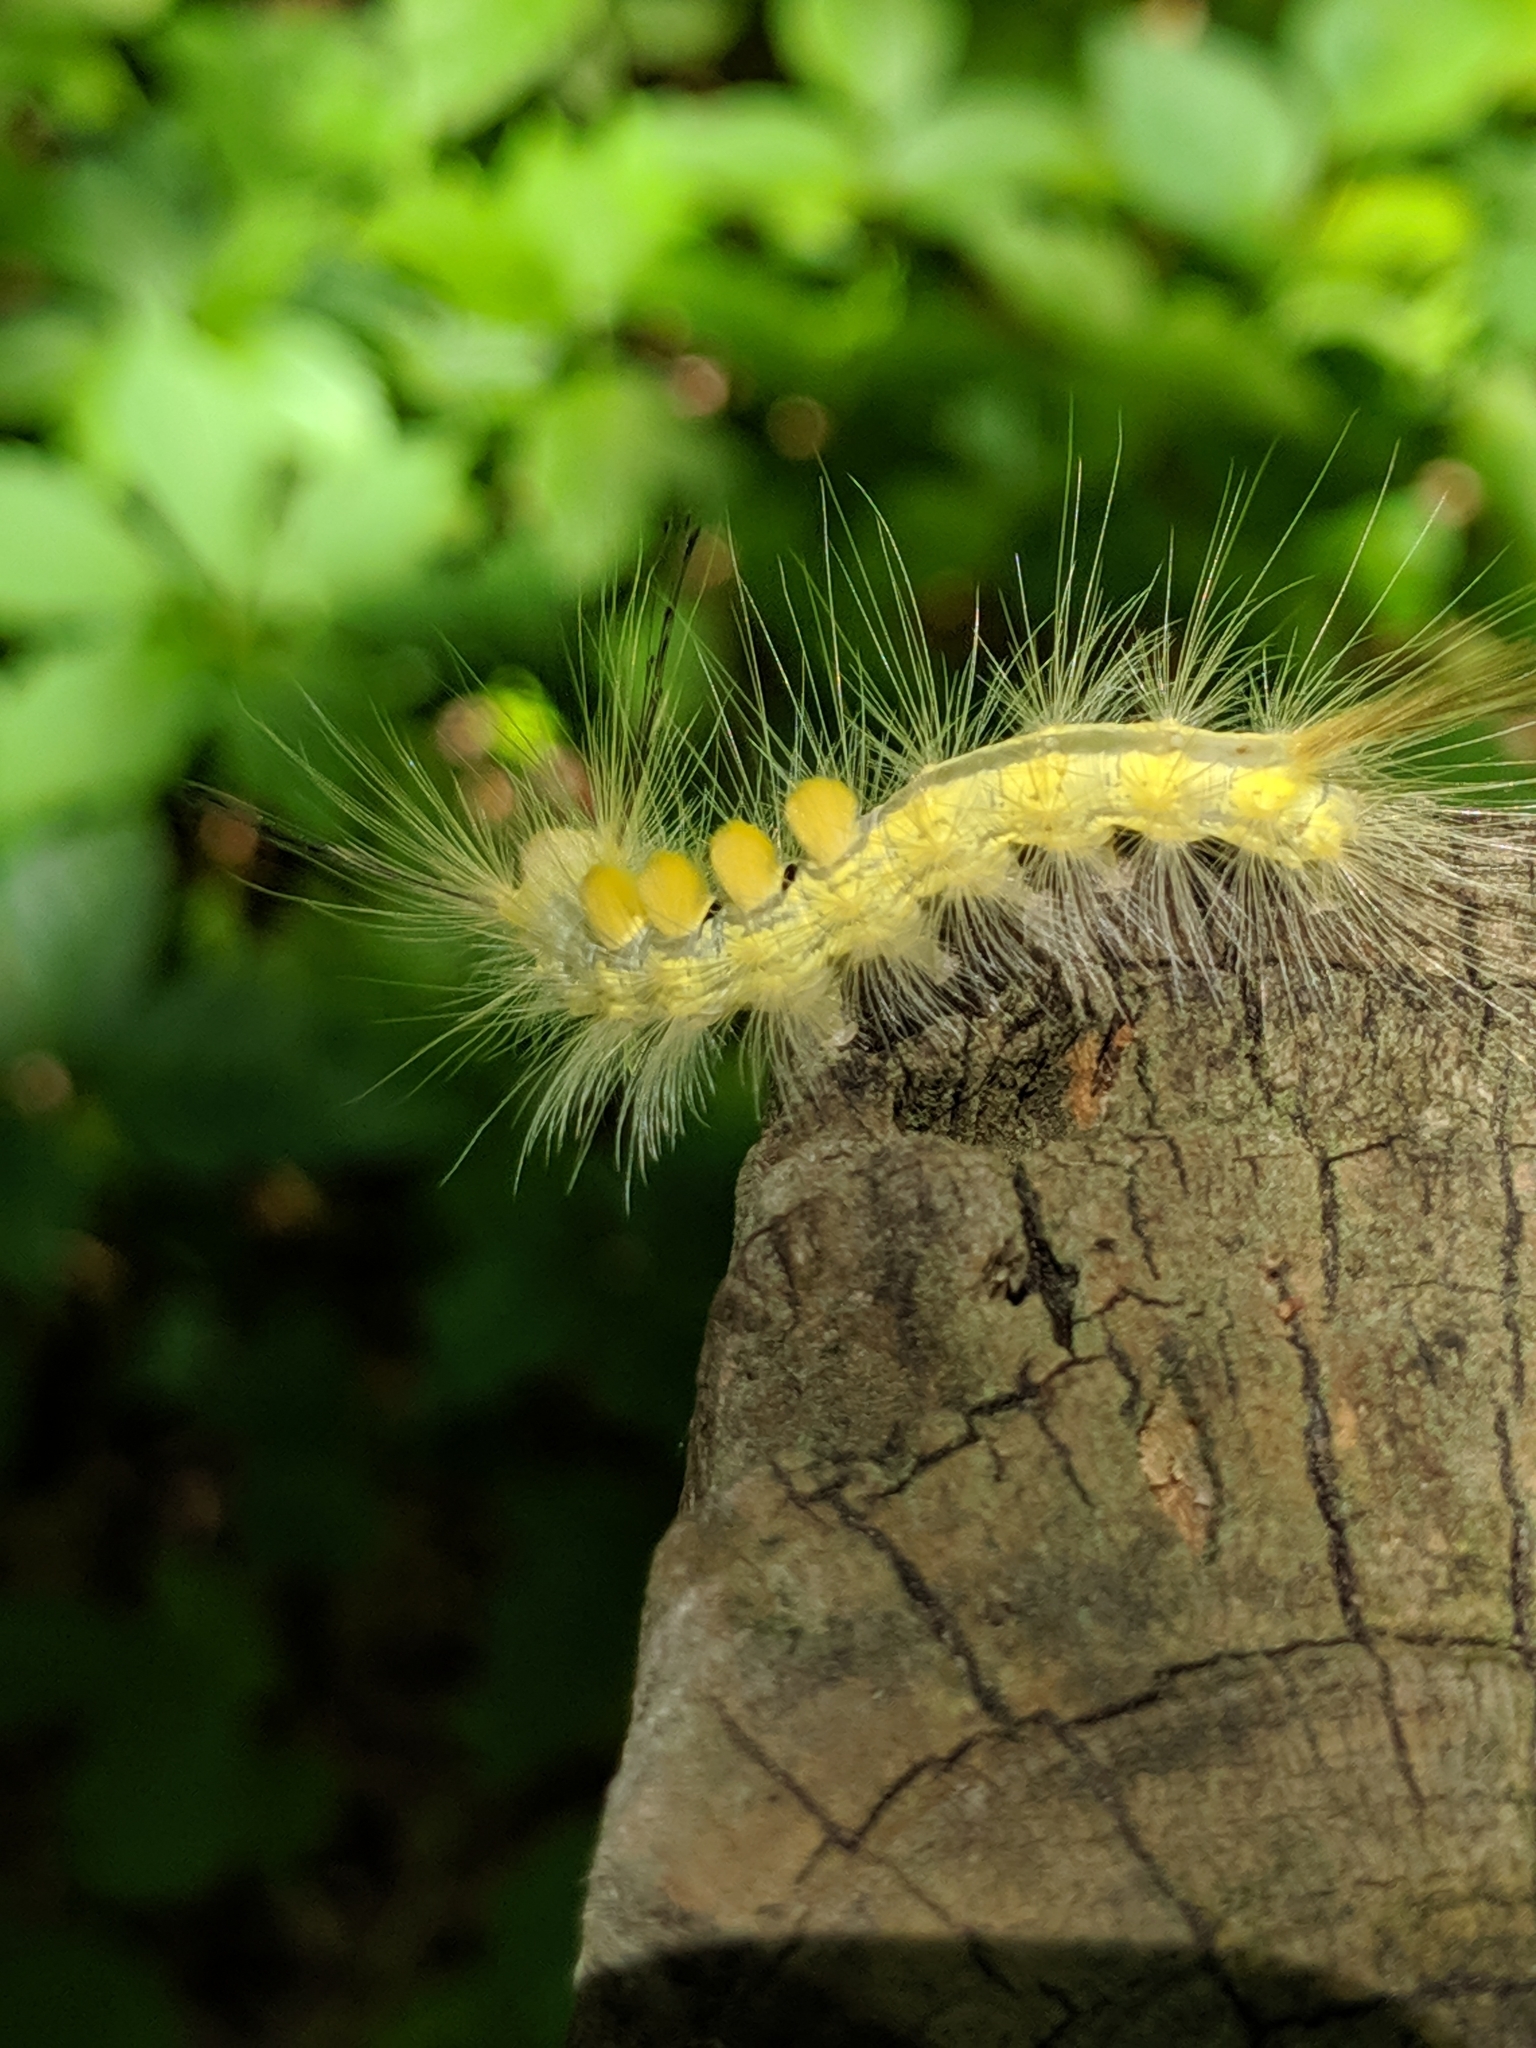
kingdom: Animalia
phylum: Arthropoda
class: Insecta
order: Lepidoptera
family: Erebidae
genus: Orgyia
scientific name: Orgyia definita
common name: Definite tussock moth
